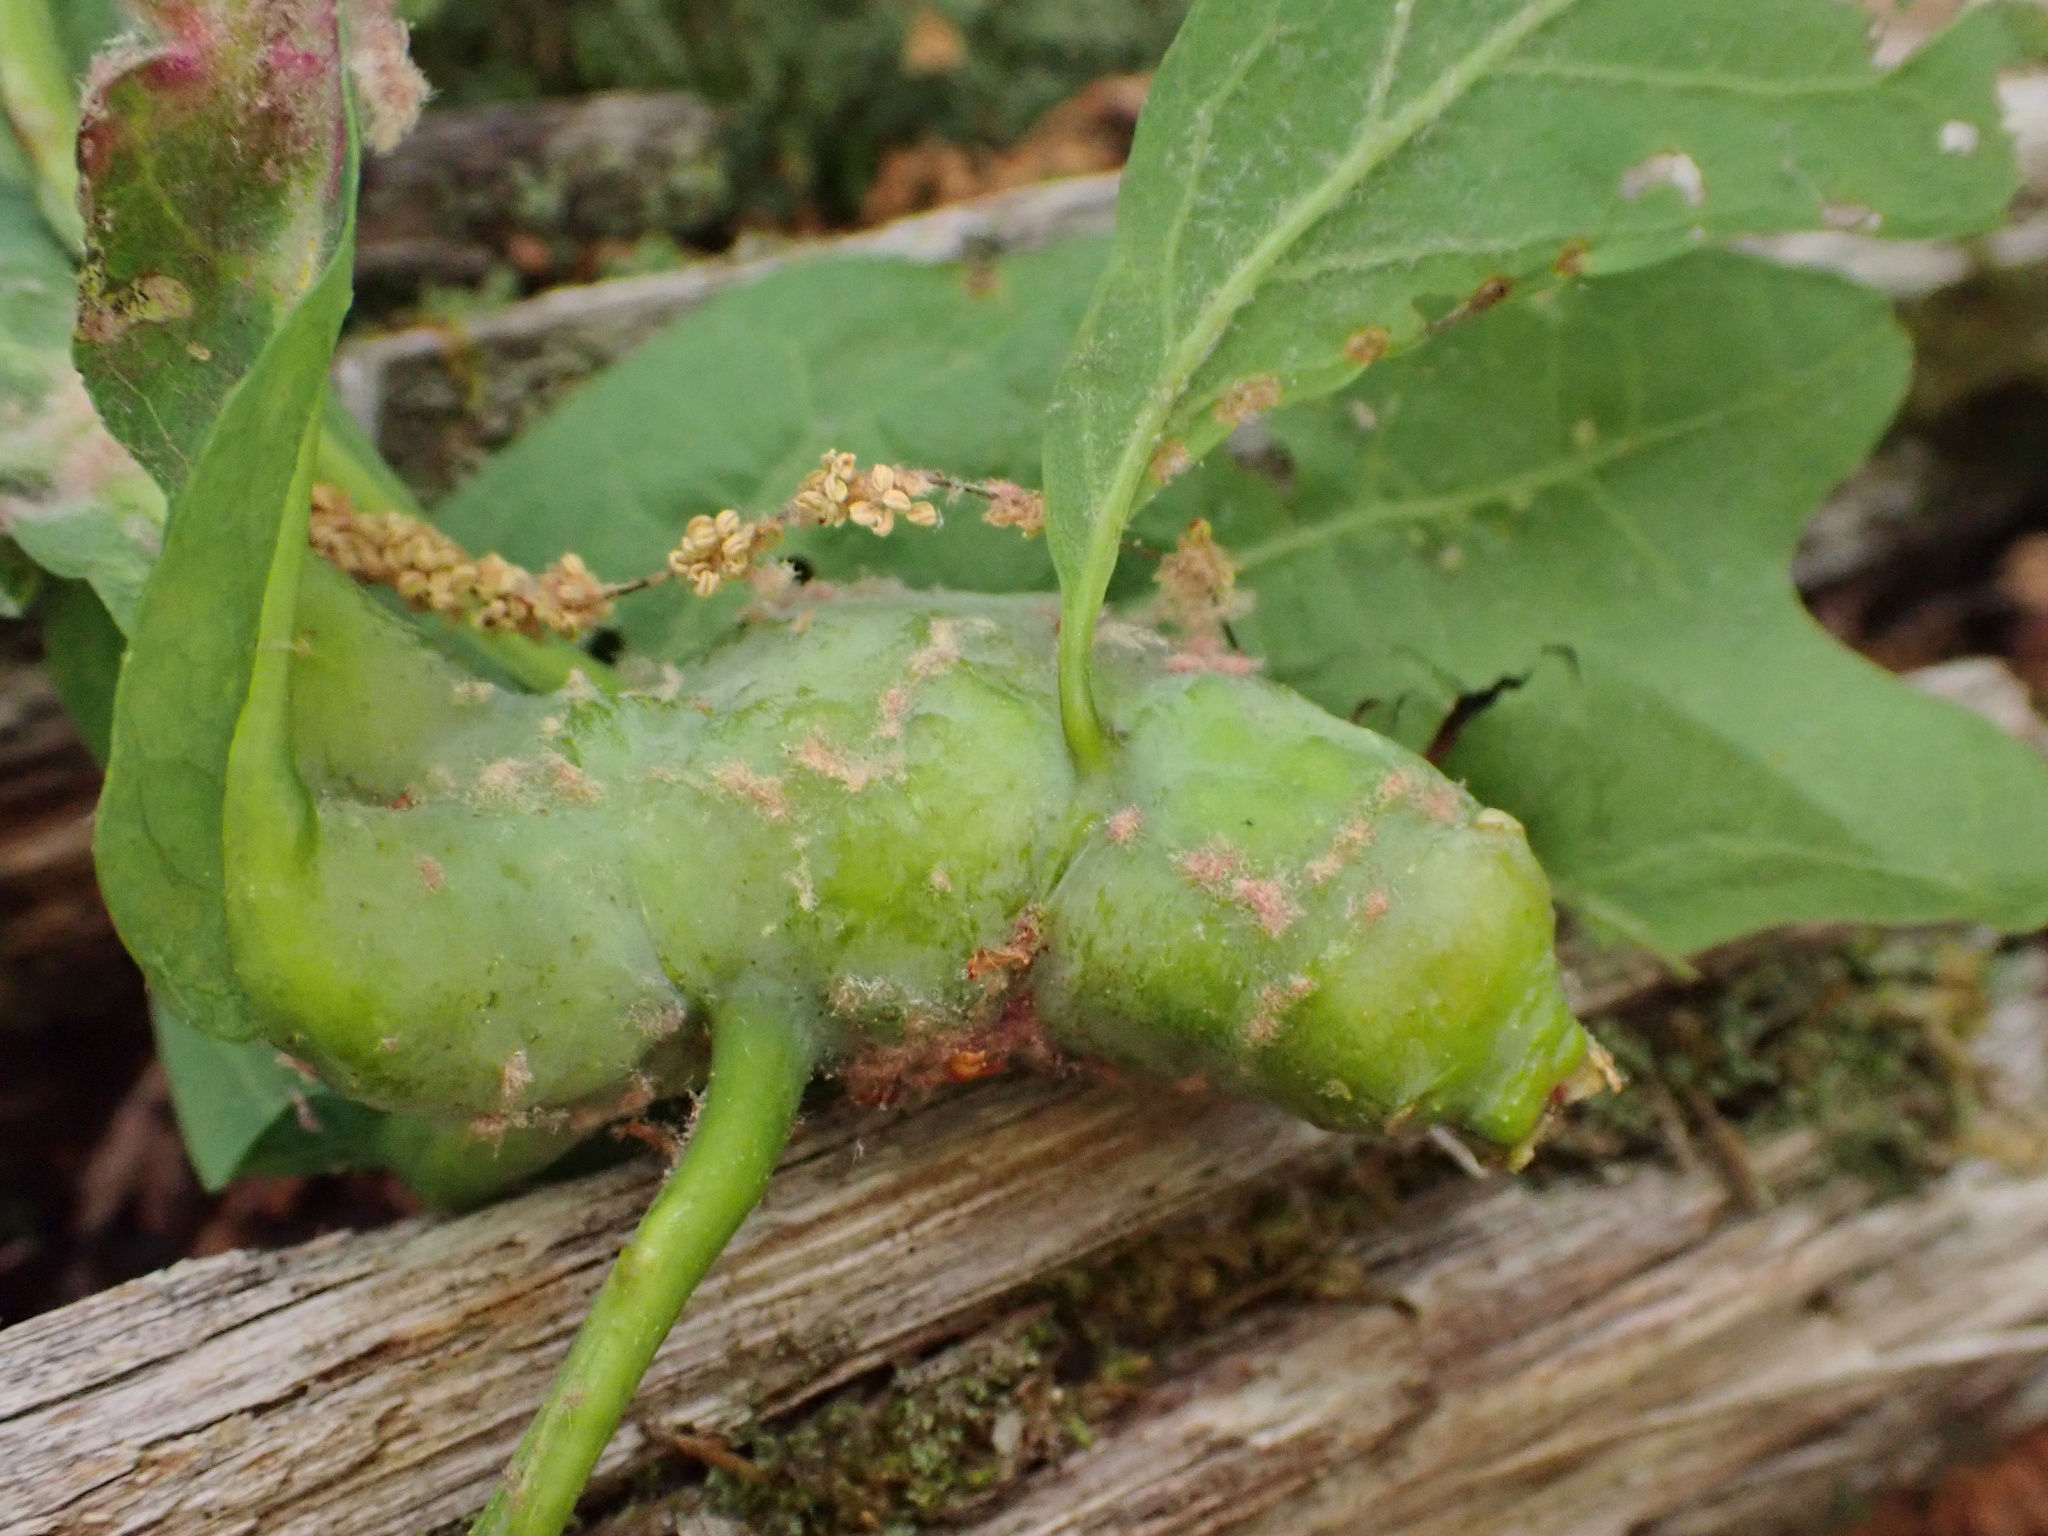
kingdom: Animalia
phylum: Arthropoda
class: Insecta
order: Hymenoptera
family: Cynipidae
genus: Neuroterus
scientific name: Neuroterus quercusbaccarum
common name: Common spangle gall
